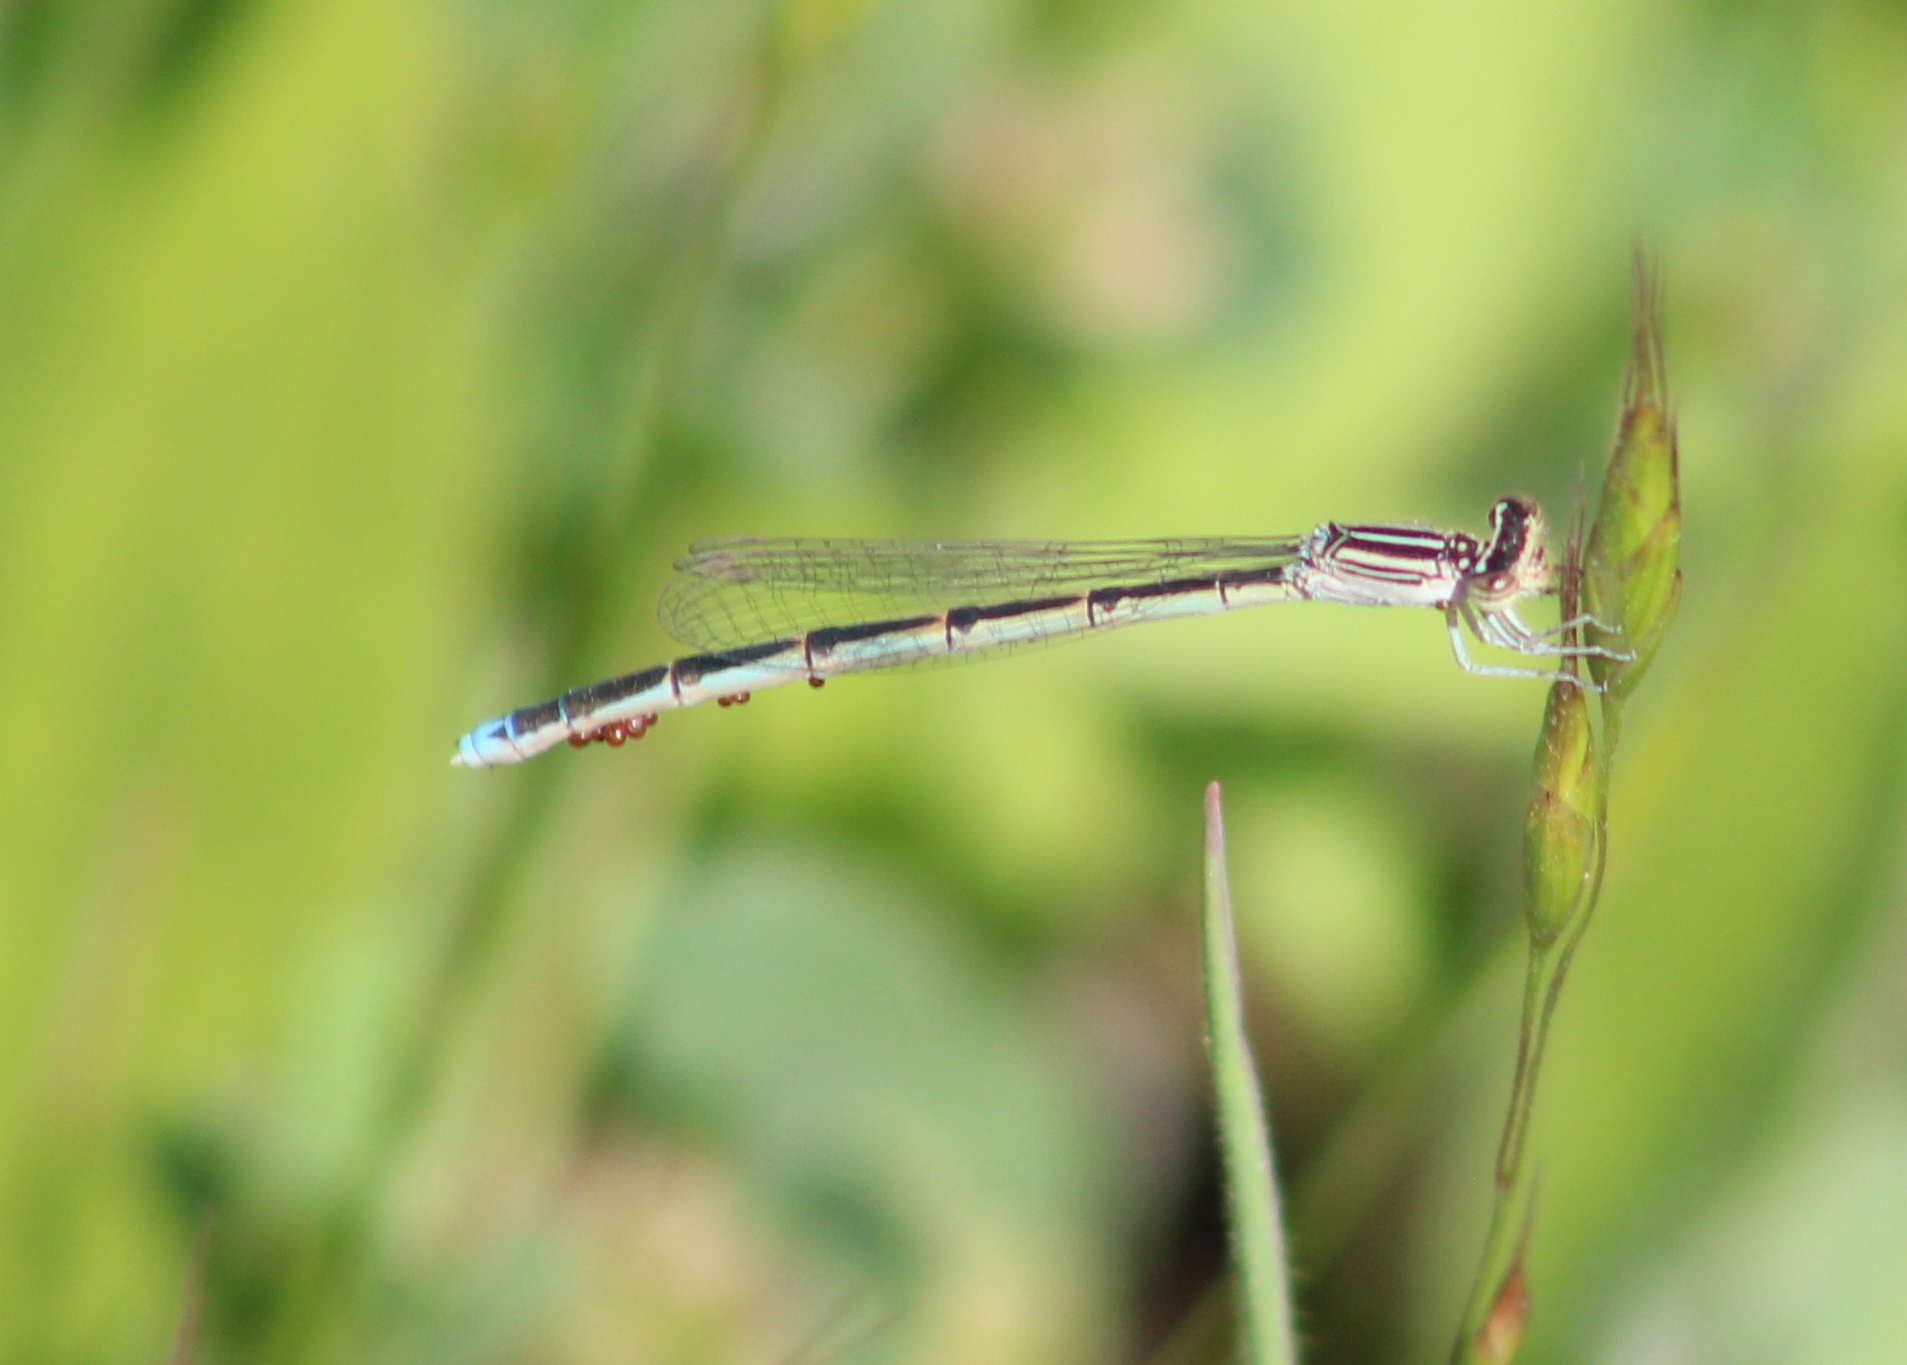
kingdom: Animalia
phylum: Arthropoda
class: Insecta
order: Odonata
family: Coenagrionidae
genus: Enallagma
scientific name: Enallagma basidens
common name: Double-striped bluet
